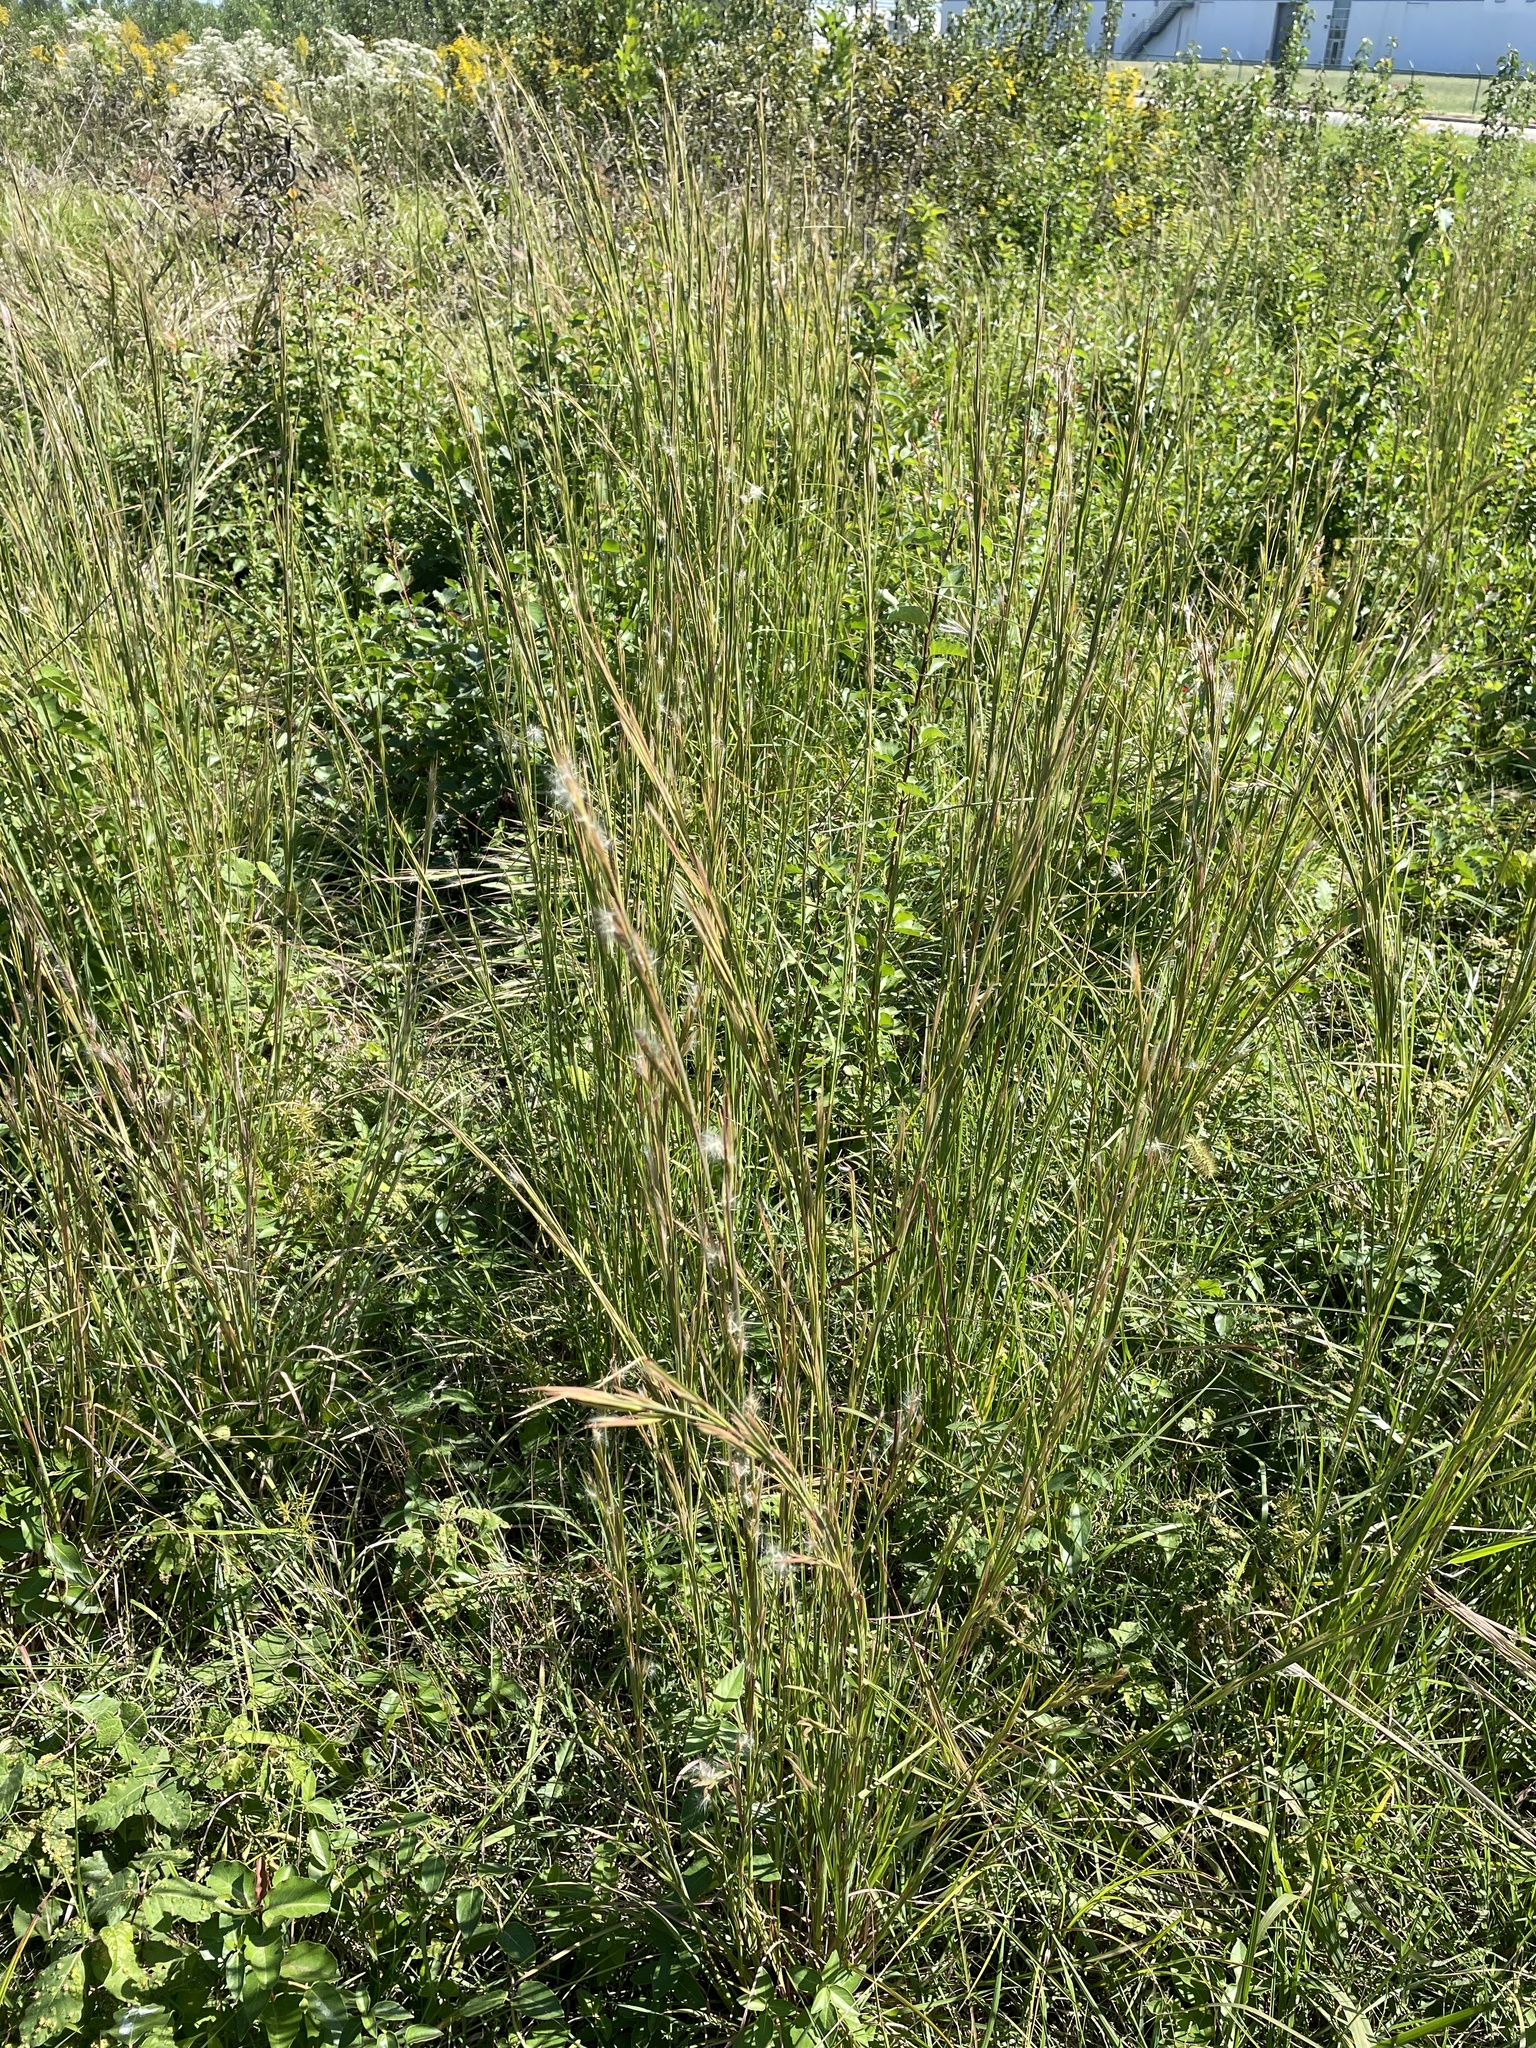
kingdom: Plantae
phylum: Tracheophyta
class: Liliopsida
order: Poales
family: Poaceae
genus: Andropogon
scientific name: Andropogon virginicus
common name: Broomsedge bluestem
